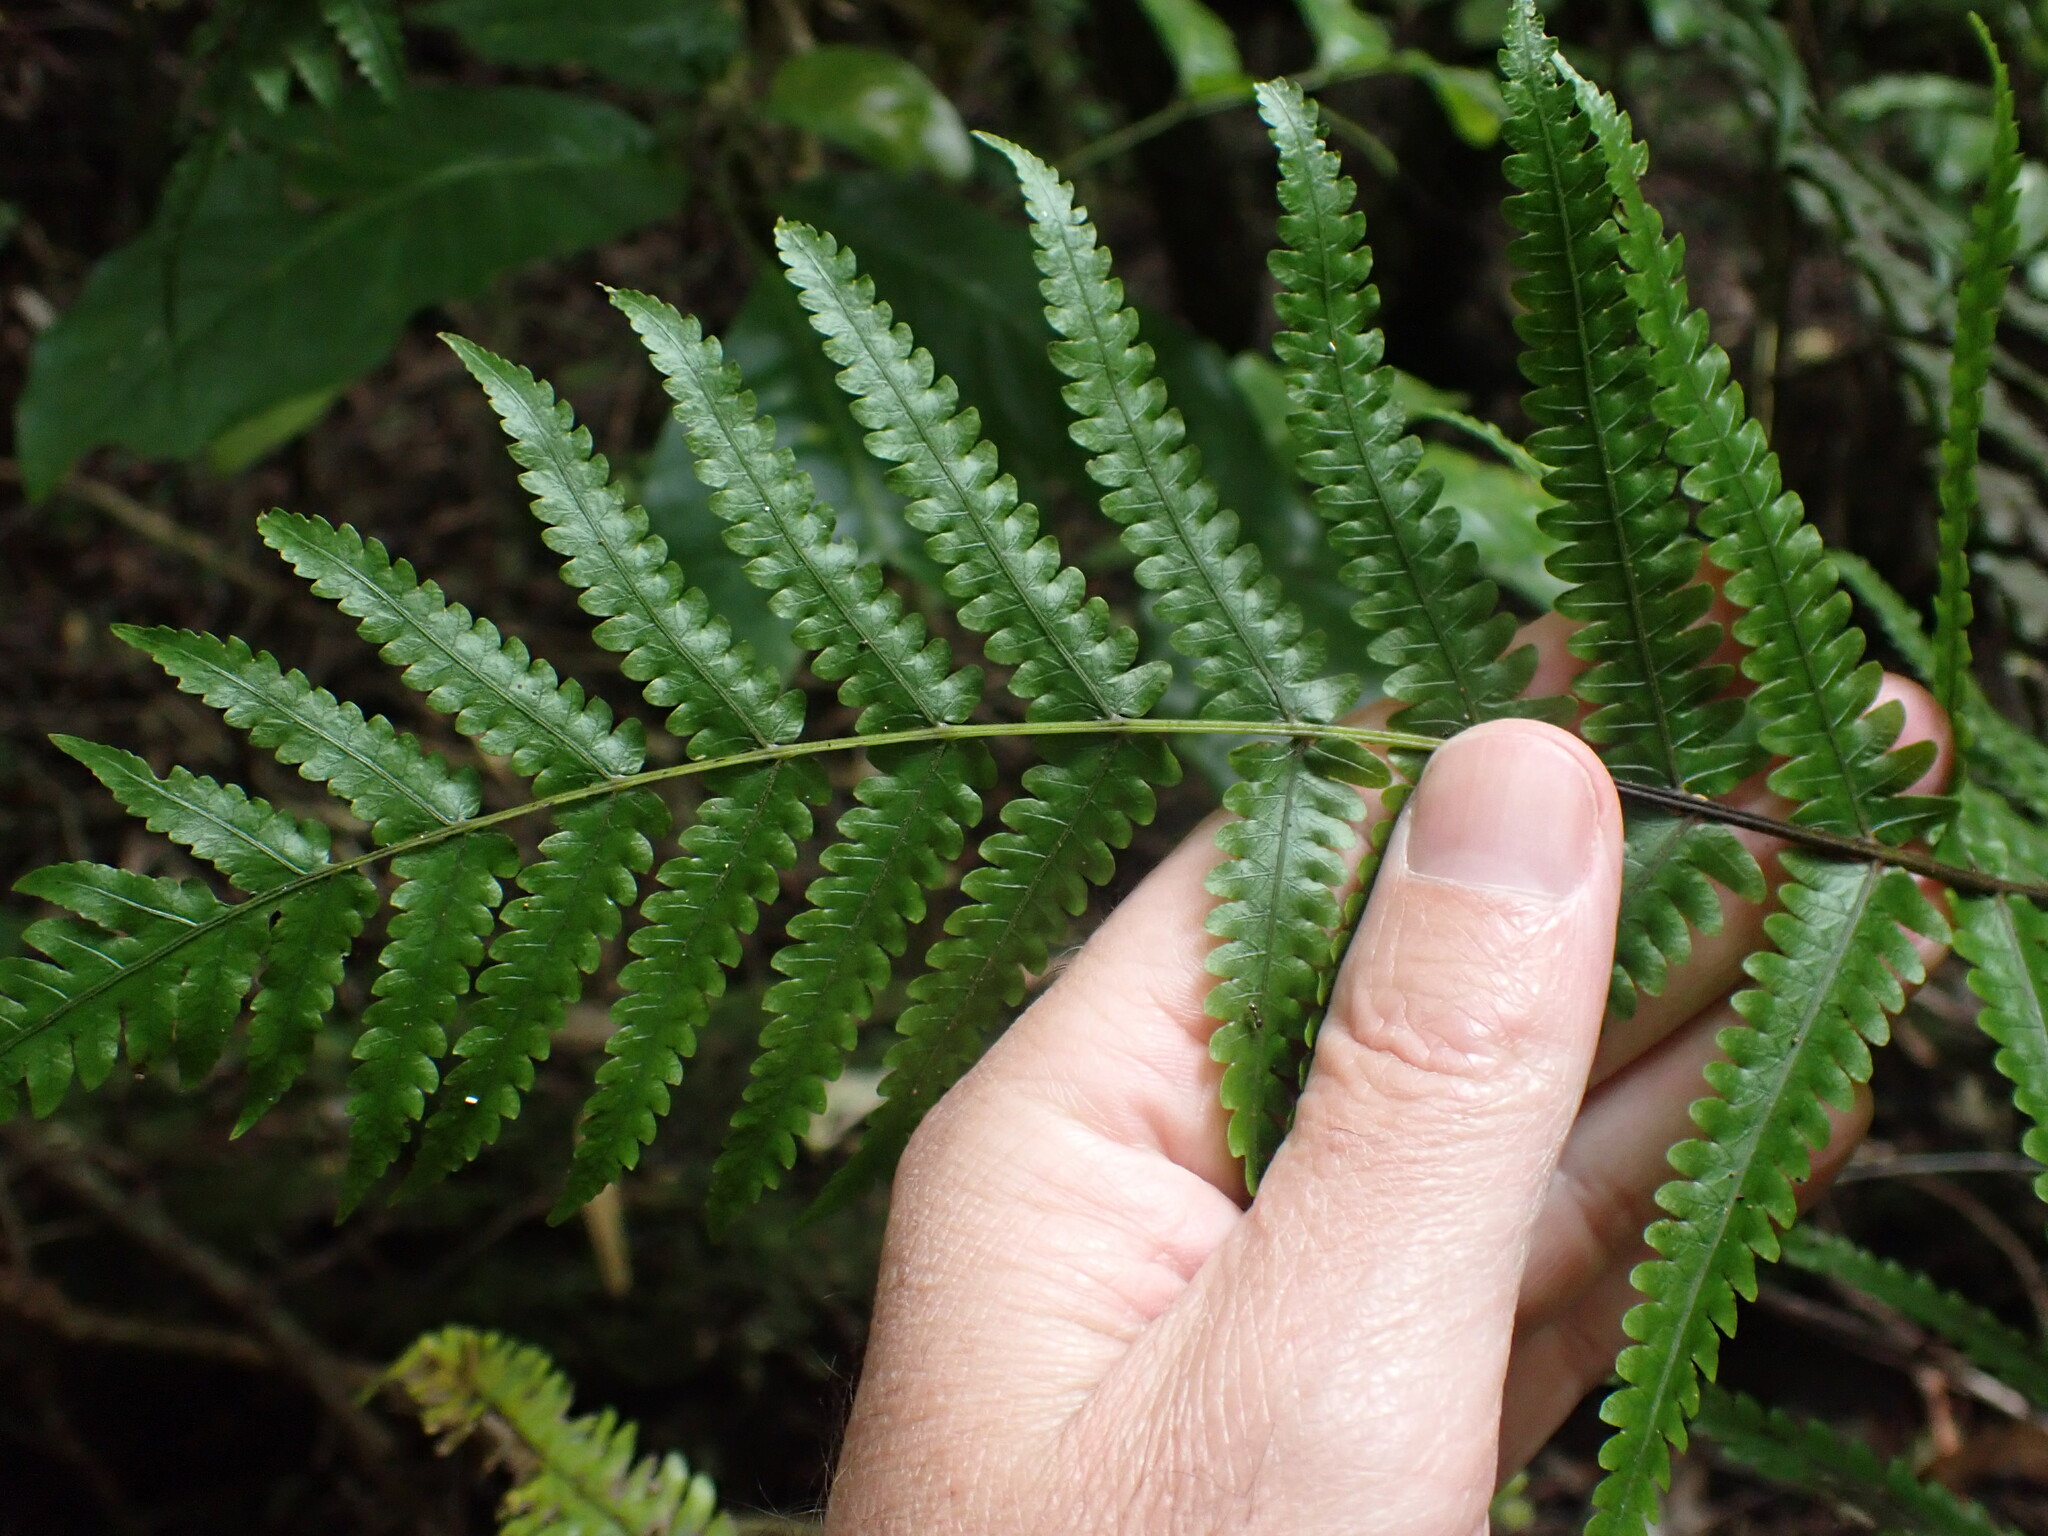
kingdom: Plantae
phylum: Tracheophyta
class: Polypodiopsida
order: Polypodiales
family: Thelypteridaceae
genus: Pakau
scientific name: Pakau pennigera
